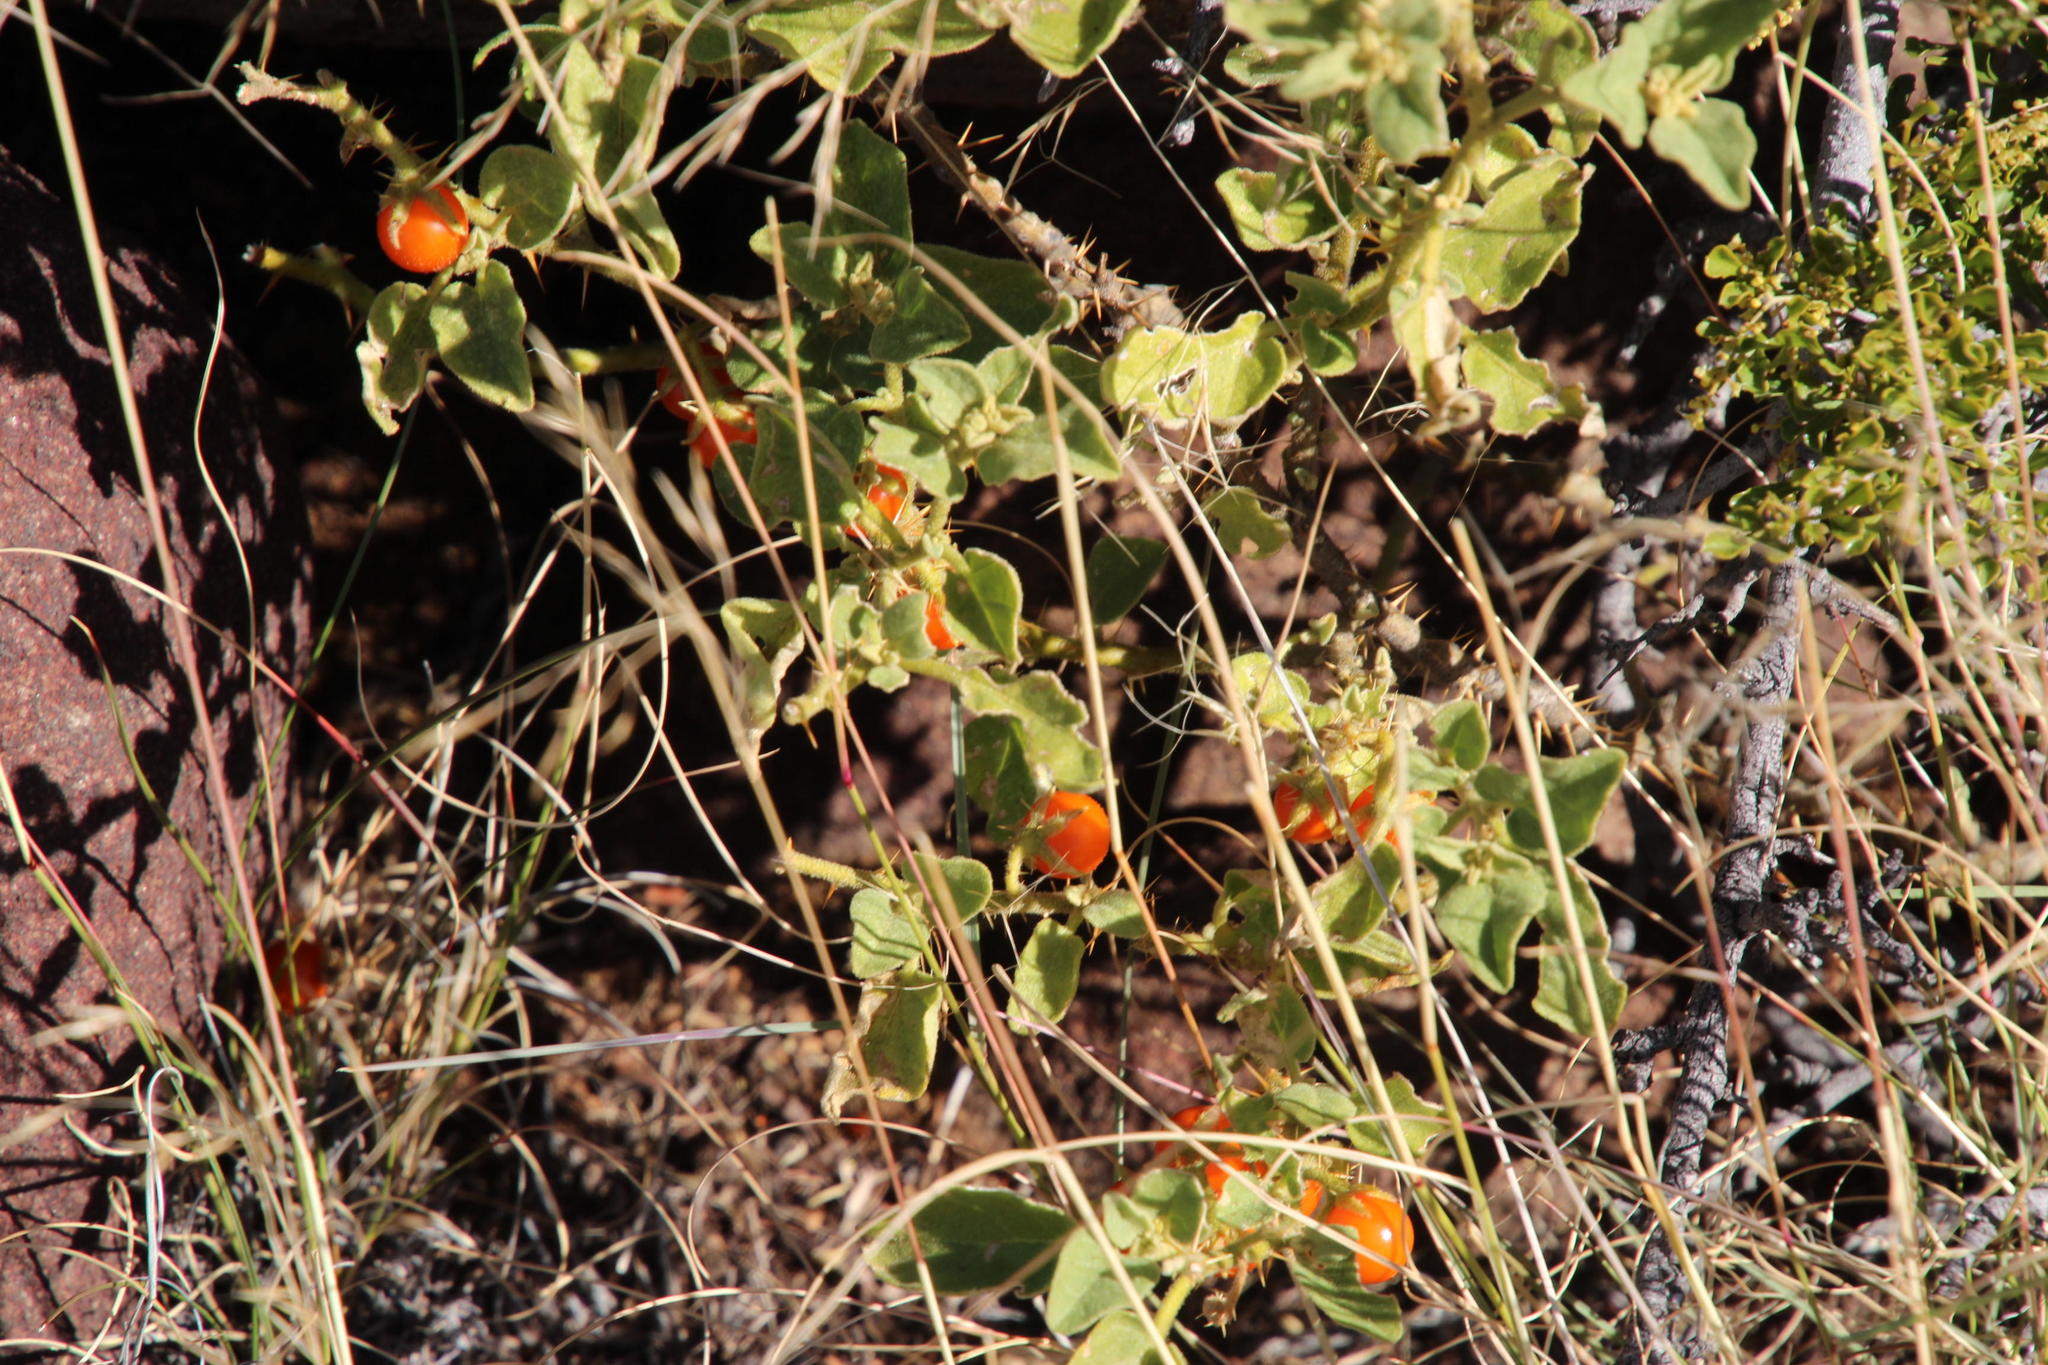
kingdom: Plantae
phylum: Tracheophyta
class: Magnoliopsida
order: Solanales
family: Solanaceae
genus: Solanum
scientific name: Solanum tomentosum
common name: Wild aubergine
